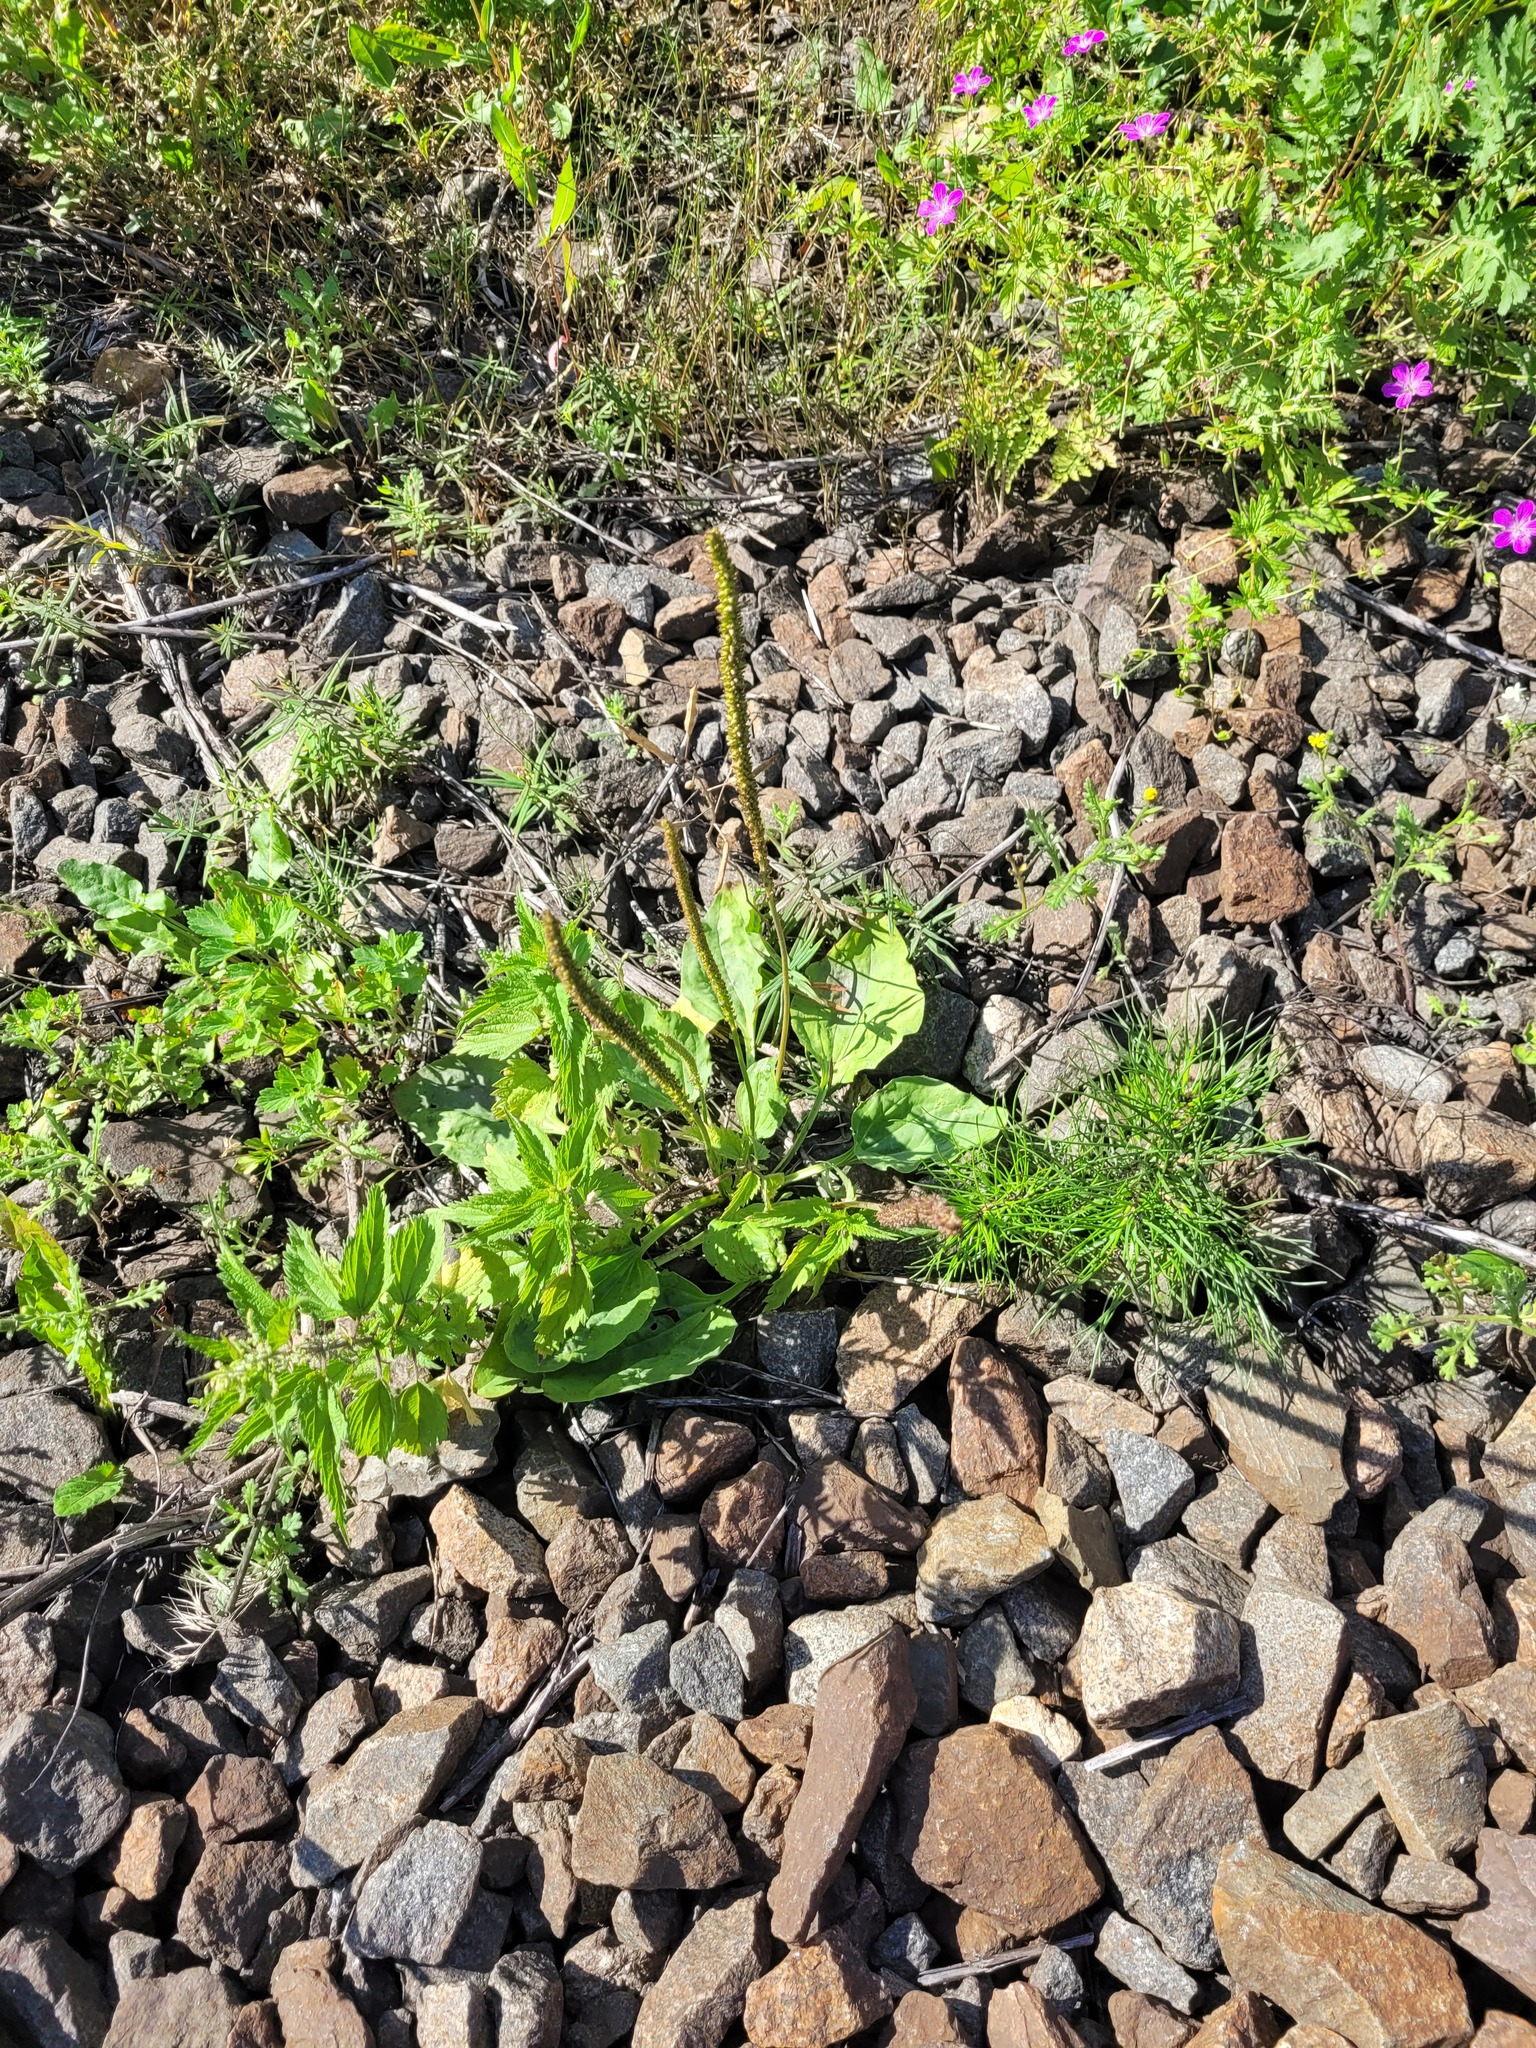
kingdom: Plantae
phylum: Tracheophyta
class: Magnoliopsida
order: Lamiales
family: Plantaginaceae
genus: Plantago
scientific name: Plantago major
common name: Common plantain
